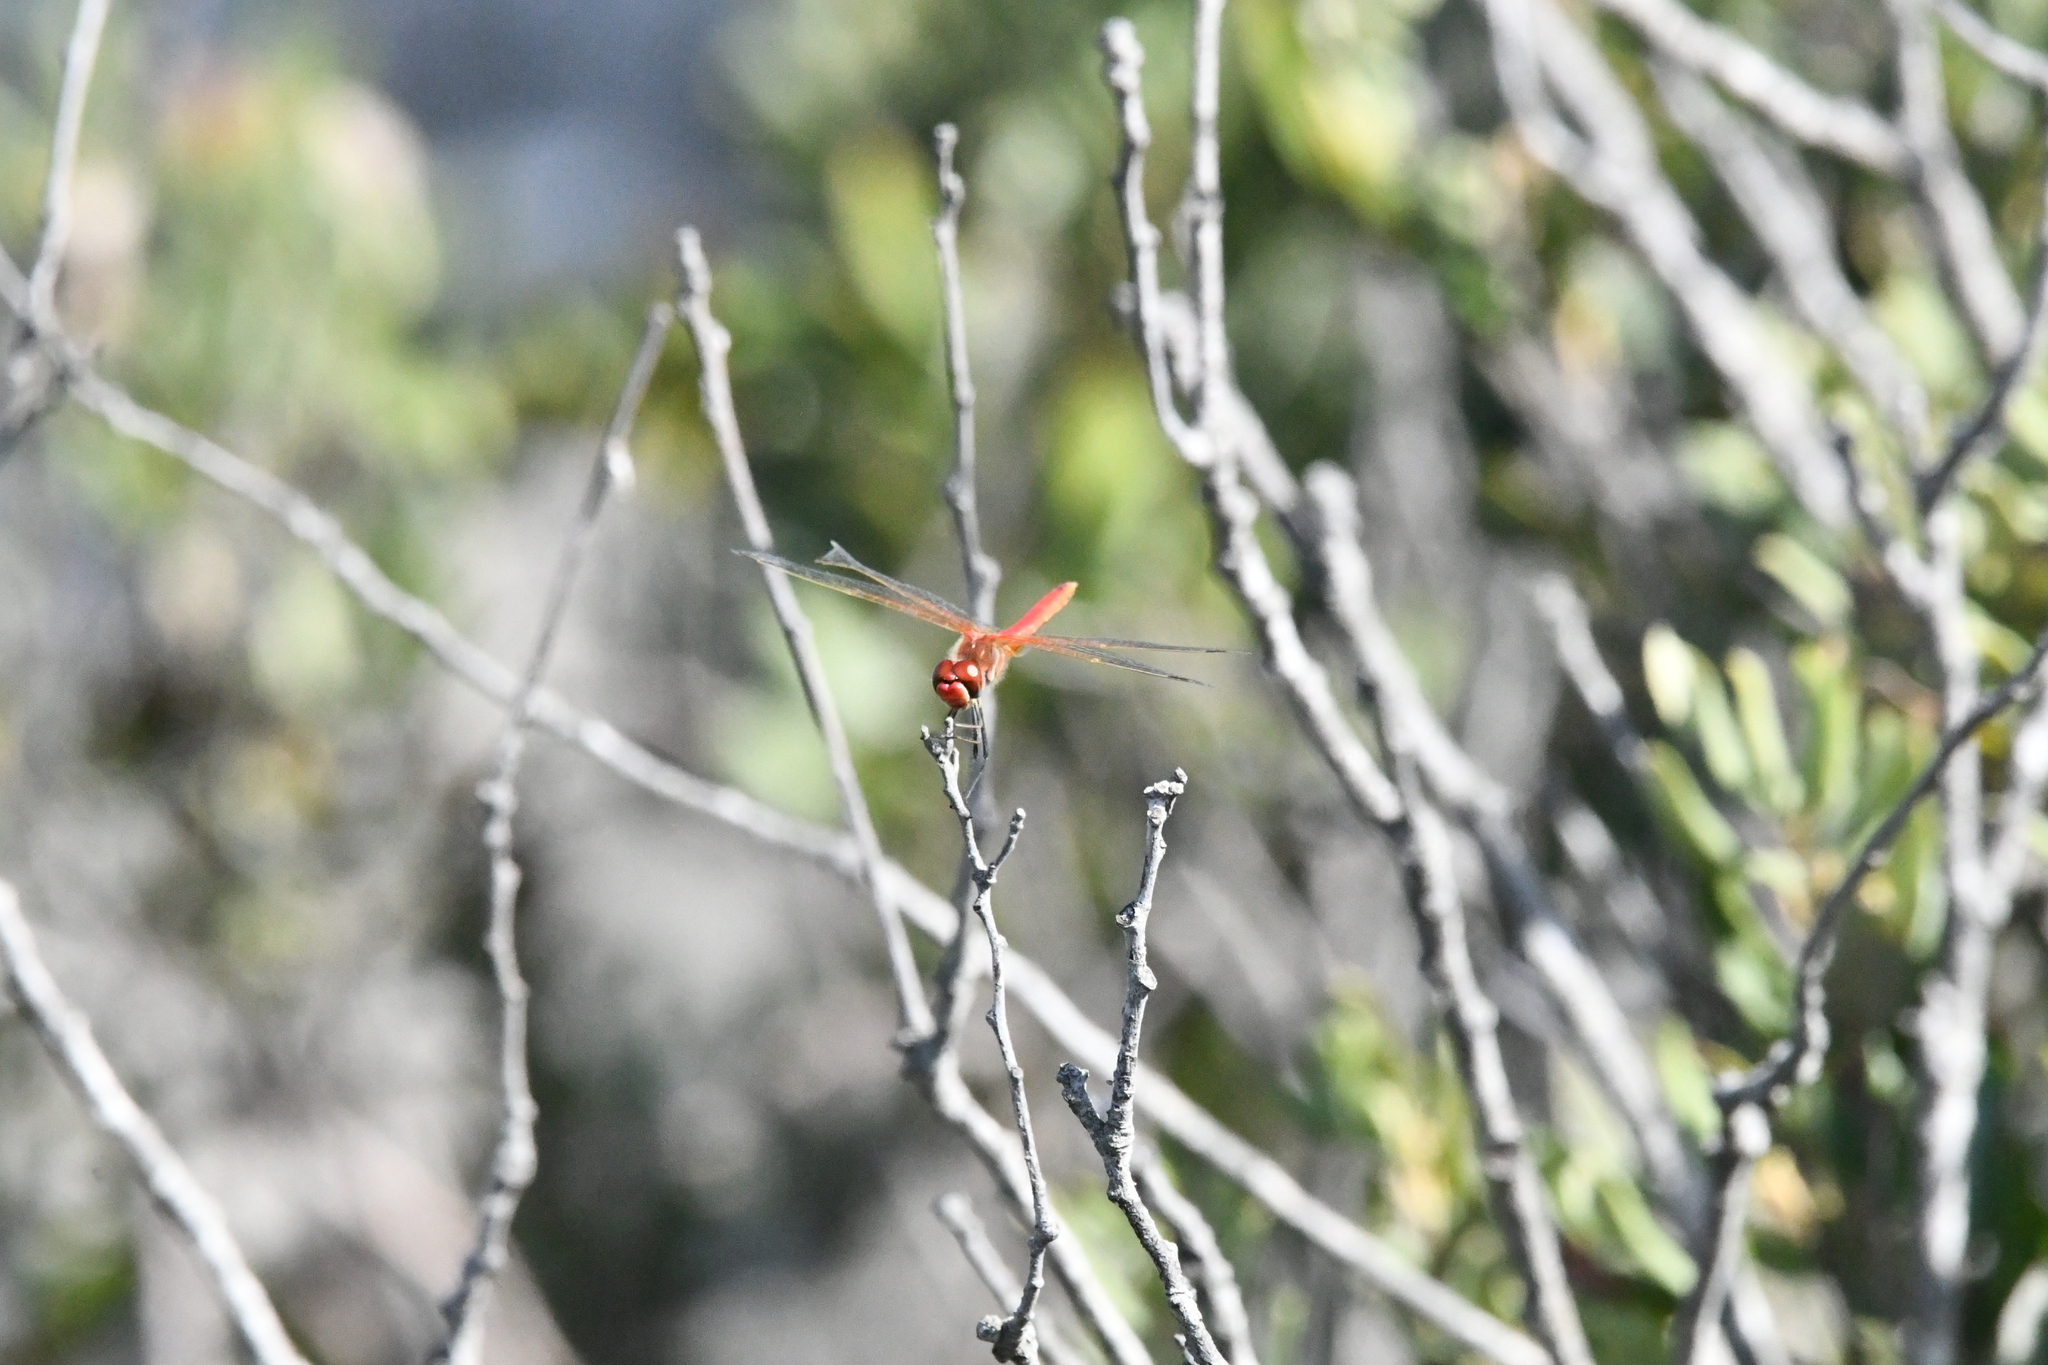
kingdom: Animalia
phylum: Arthropoda
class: Insecta
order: Odonata
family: Libellulidae
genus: Sympetrum
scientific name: Sympetrum fonscolombii
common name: Red-veined darter
